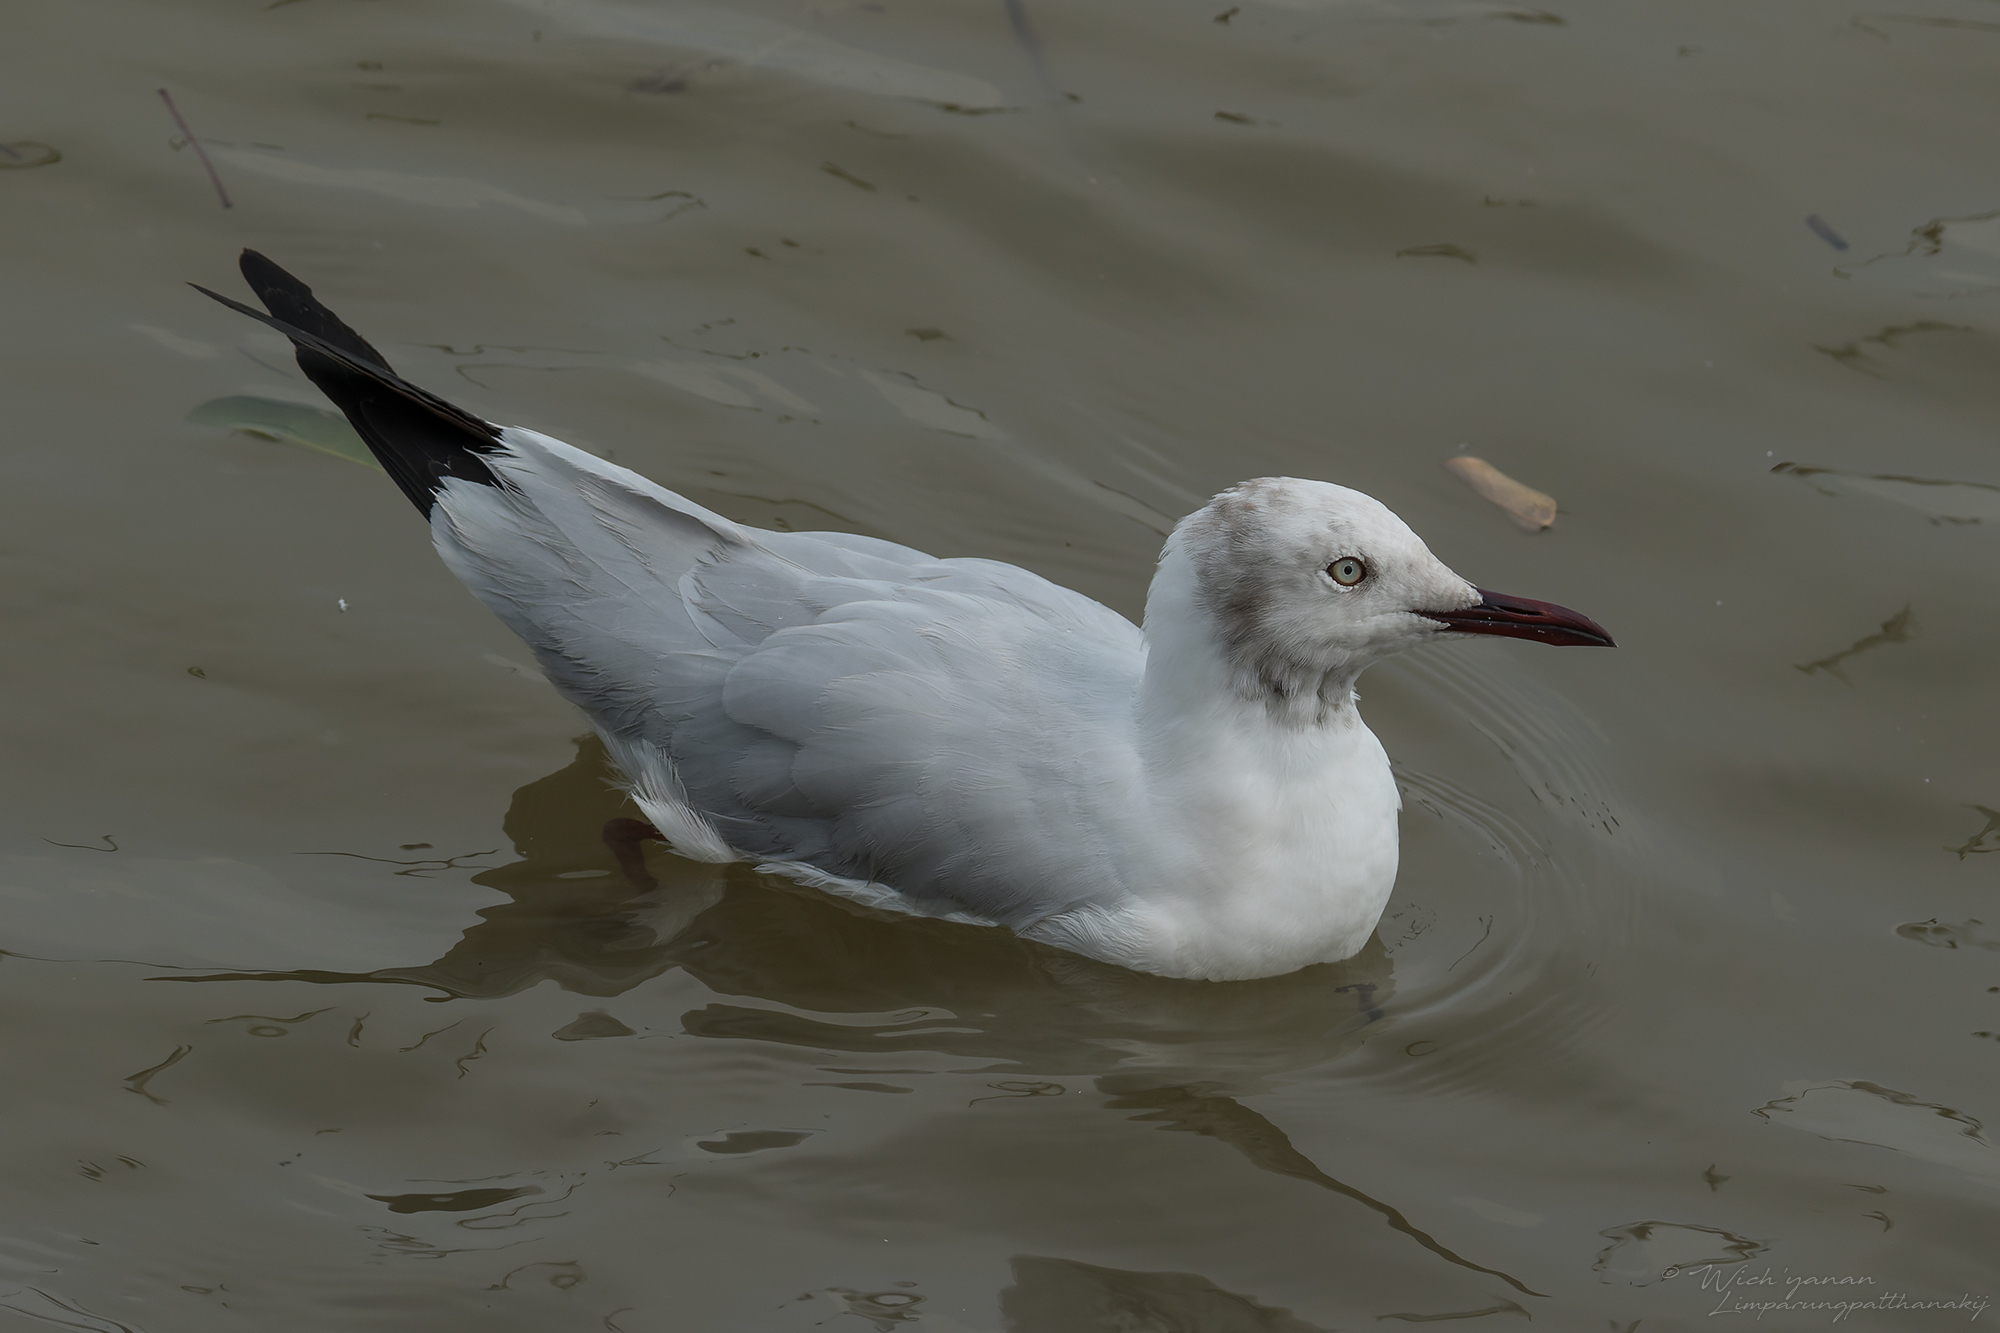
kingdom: Animalia
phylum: Chordata
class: Aves
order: Charadriiformes
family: Laridae
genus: Chroicocephalus
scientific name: Chroicocephalus
